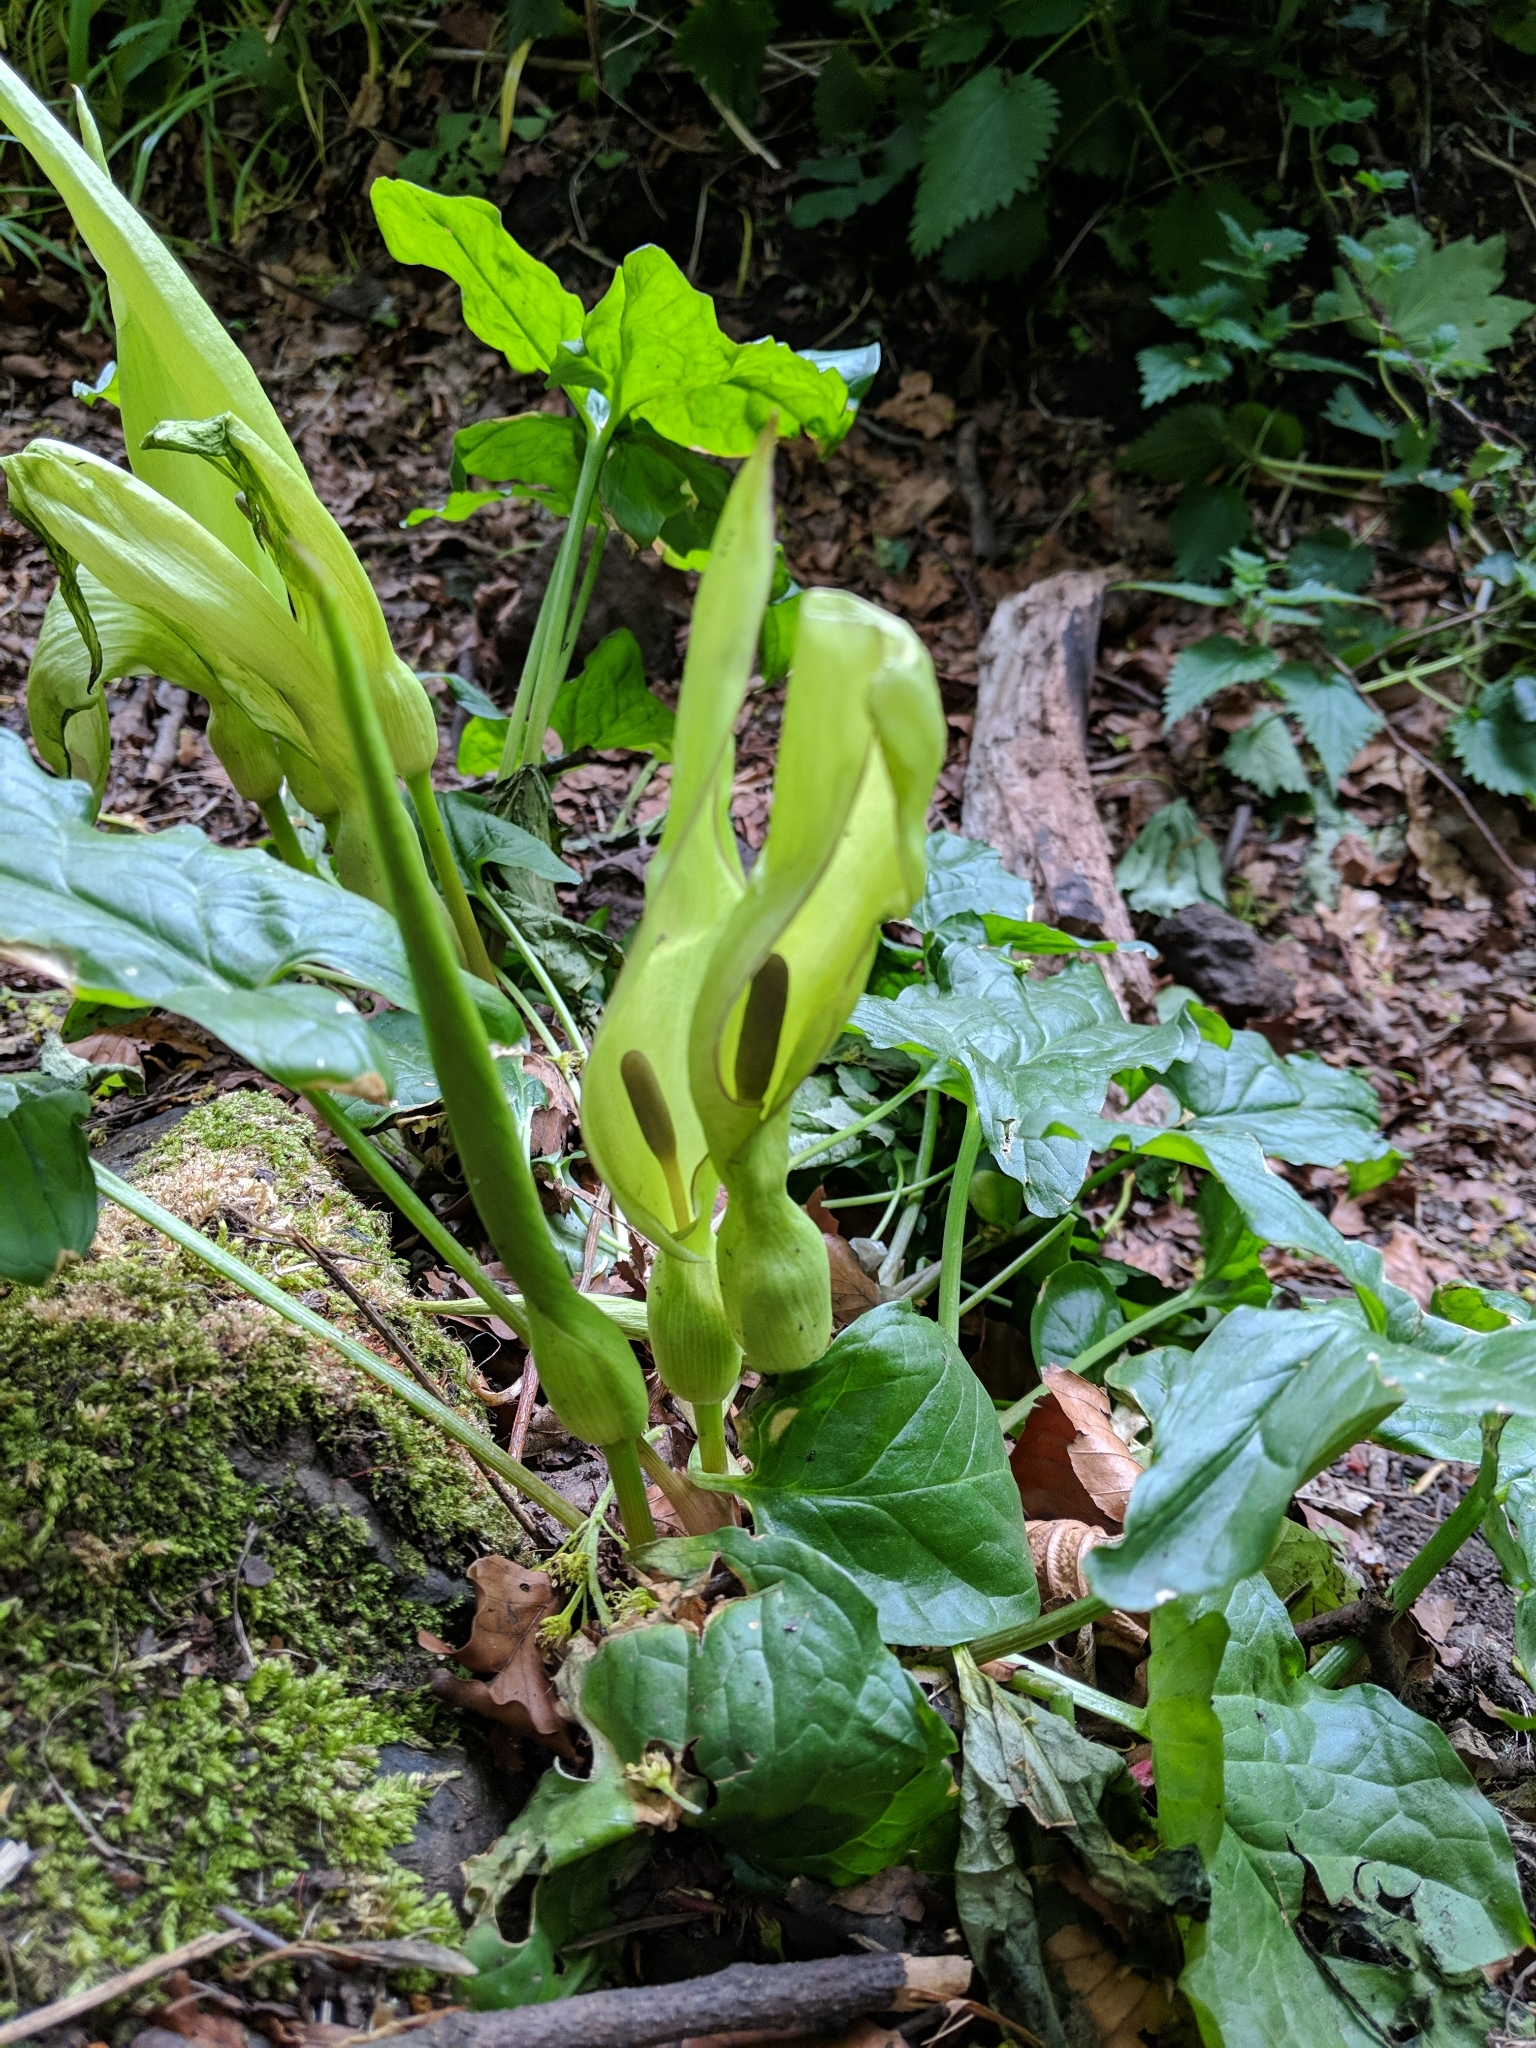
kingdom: Plantae
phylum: Tracheophyta
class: Liliopsida
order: Alismatales
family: Araceae
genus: Arum
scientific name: Arum maculatum
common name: Lords-and-ladies
